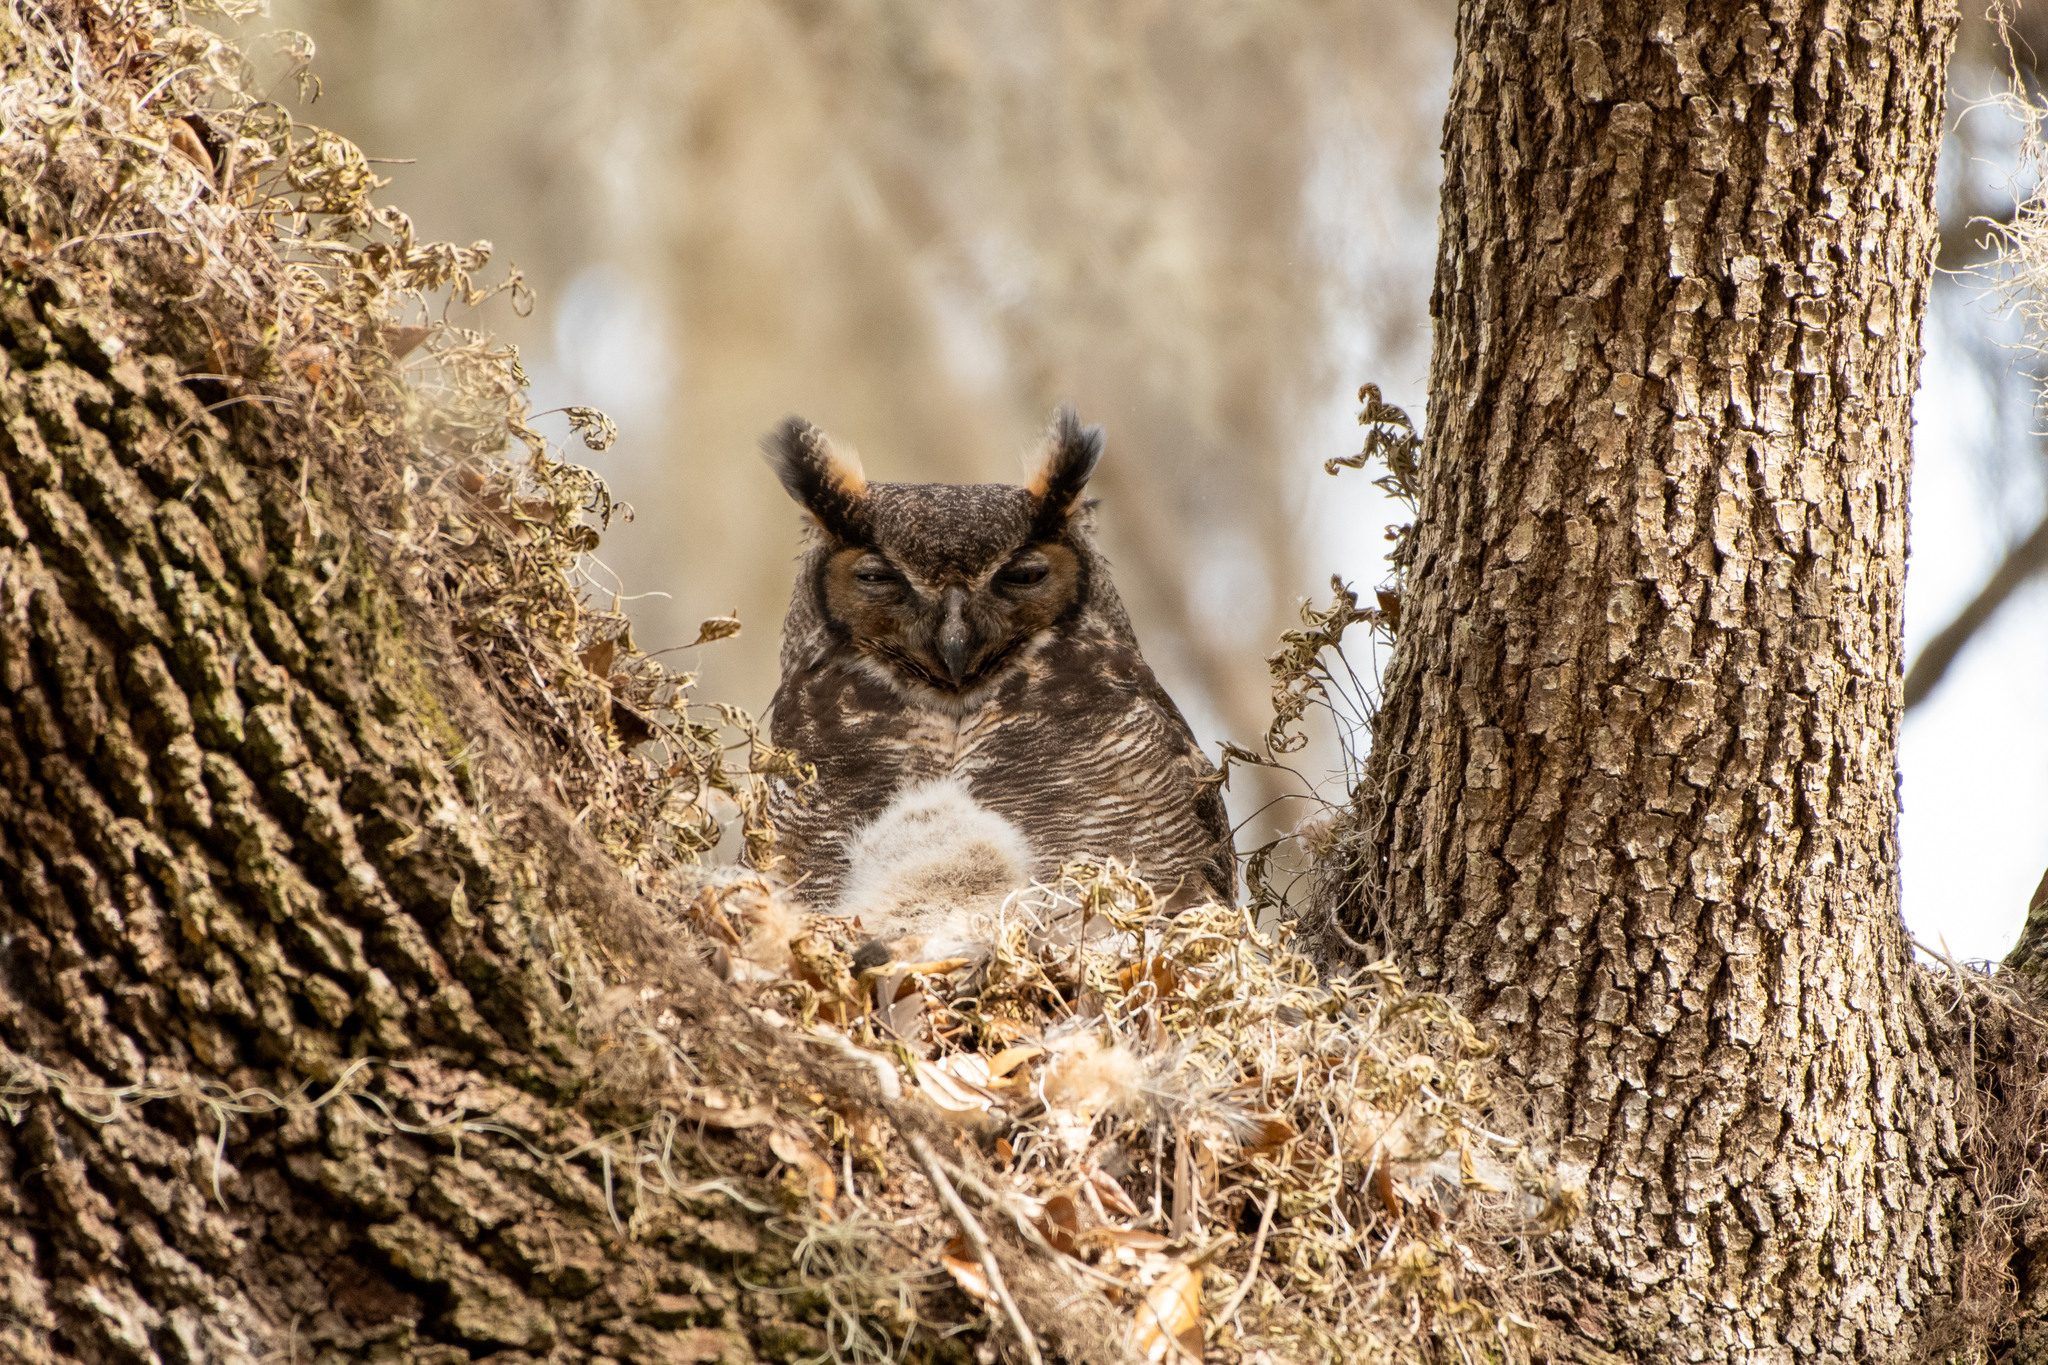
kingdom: Animalia
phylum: Chordata
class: Aves
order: Strigiformes
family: Strigidae
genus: Bubo
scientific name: Bubo virginianus
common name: Great horned owl
